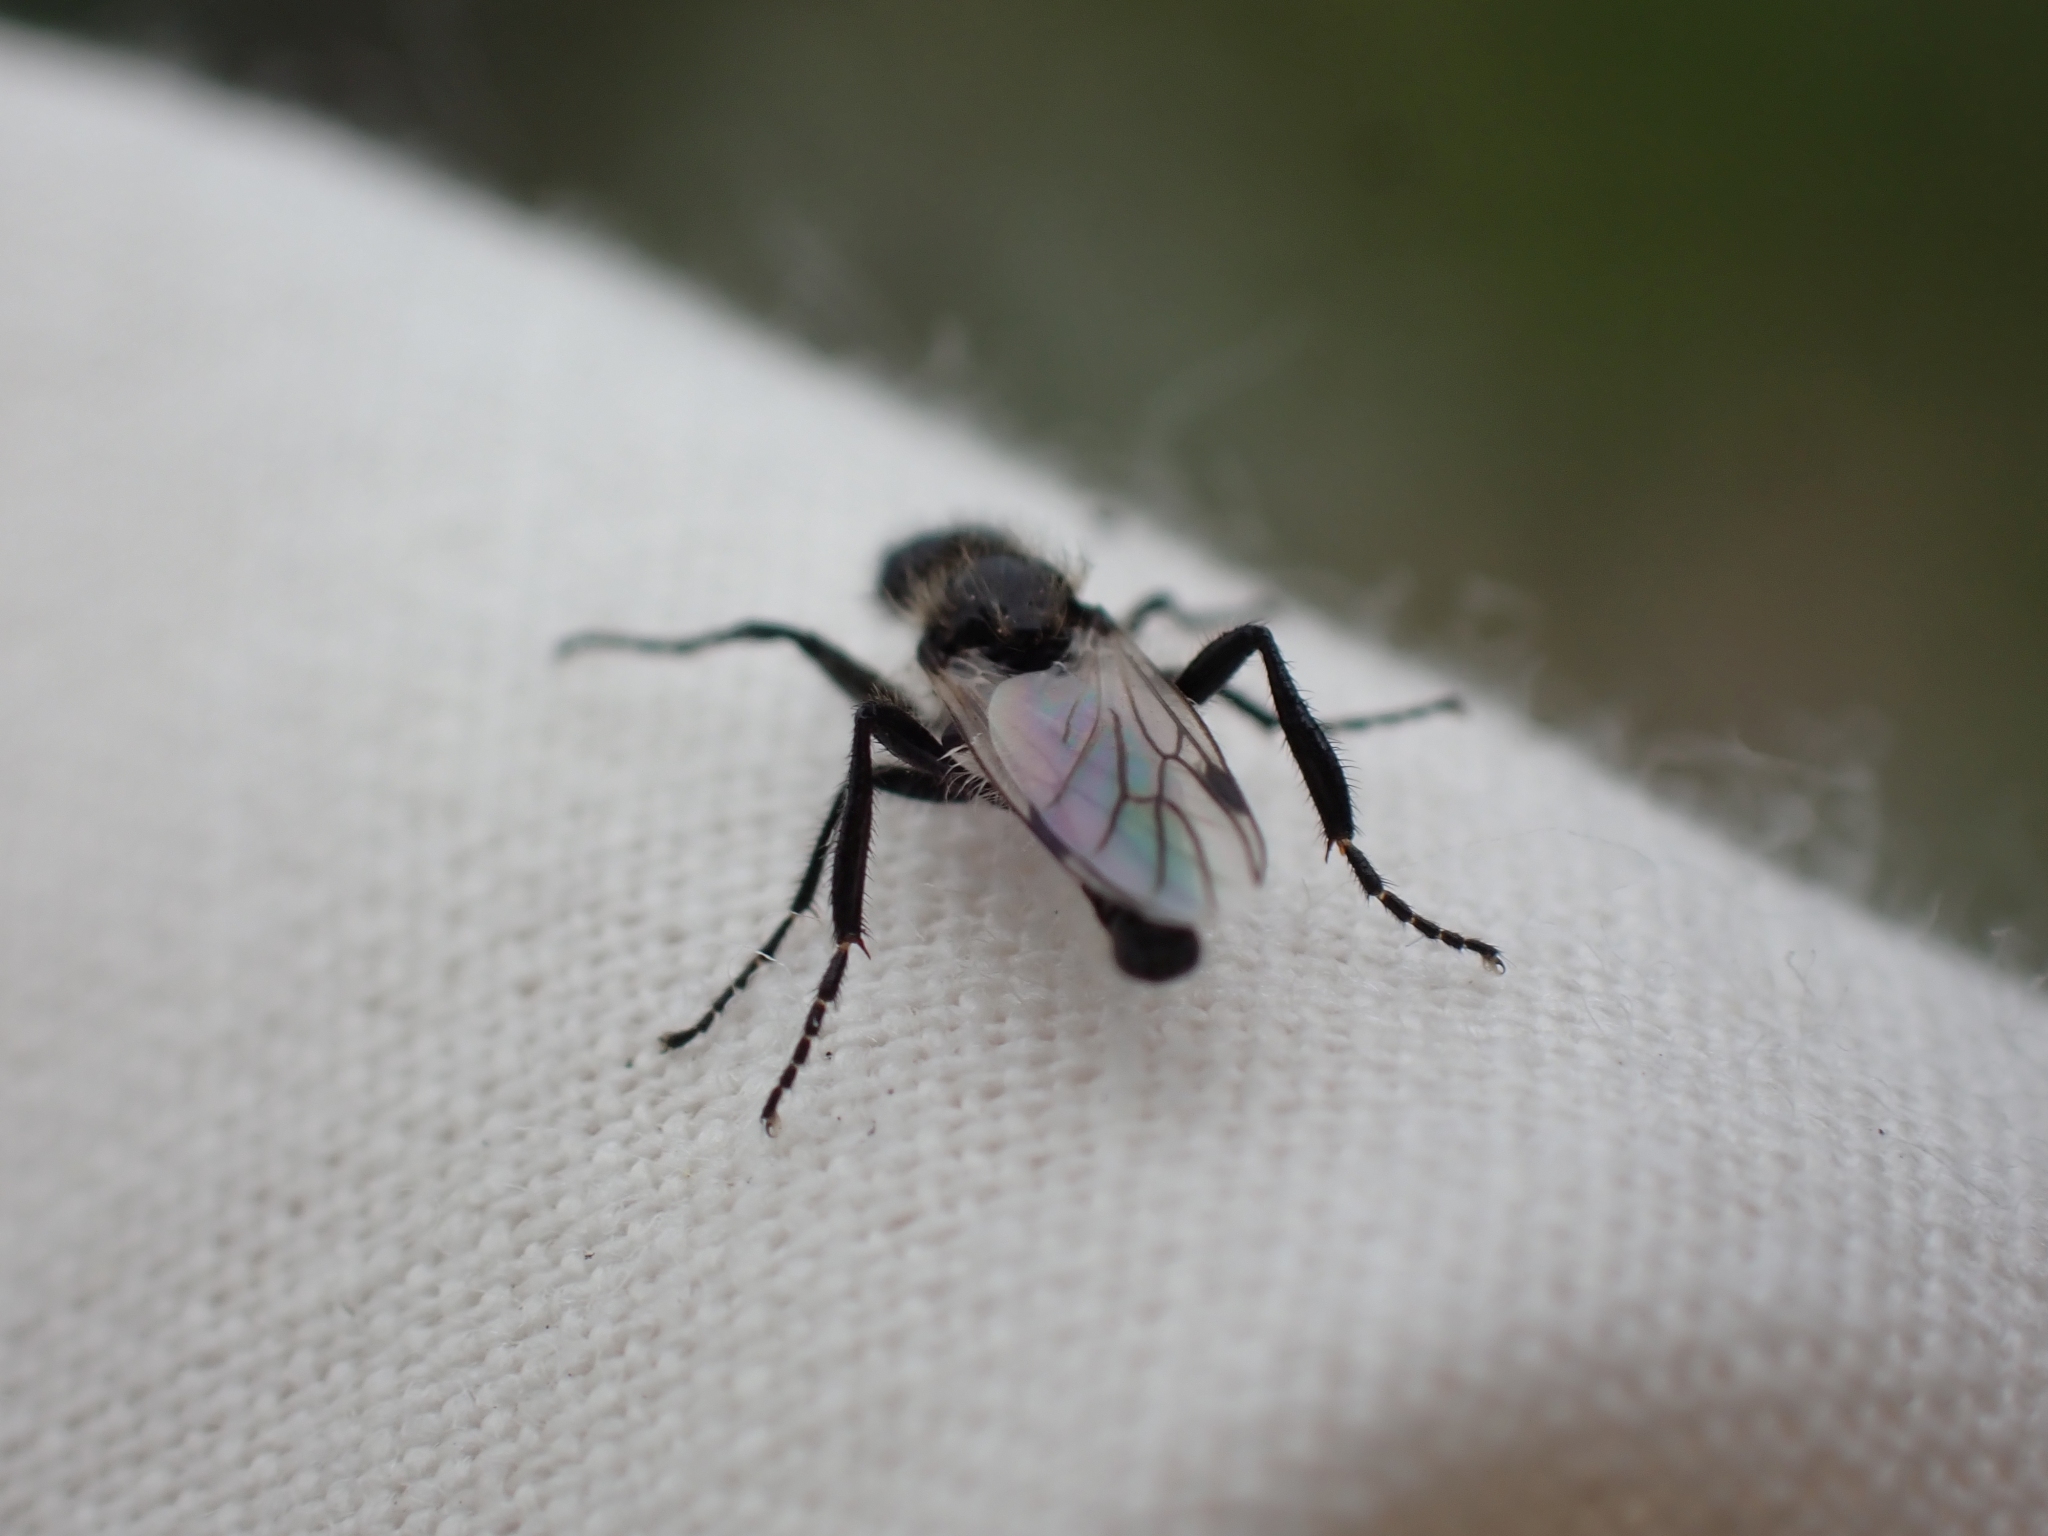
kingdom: Animalia
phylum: Arthropoda
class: Insecta
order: Diptera
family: Bibionidae
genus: Bibio
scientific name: Bibio albipennis
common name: White-winged march fly
